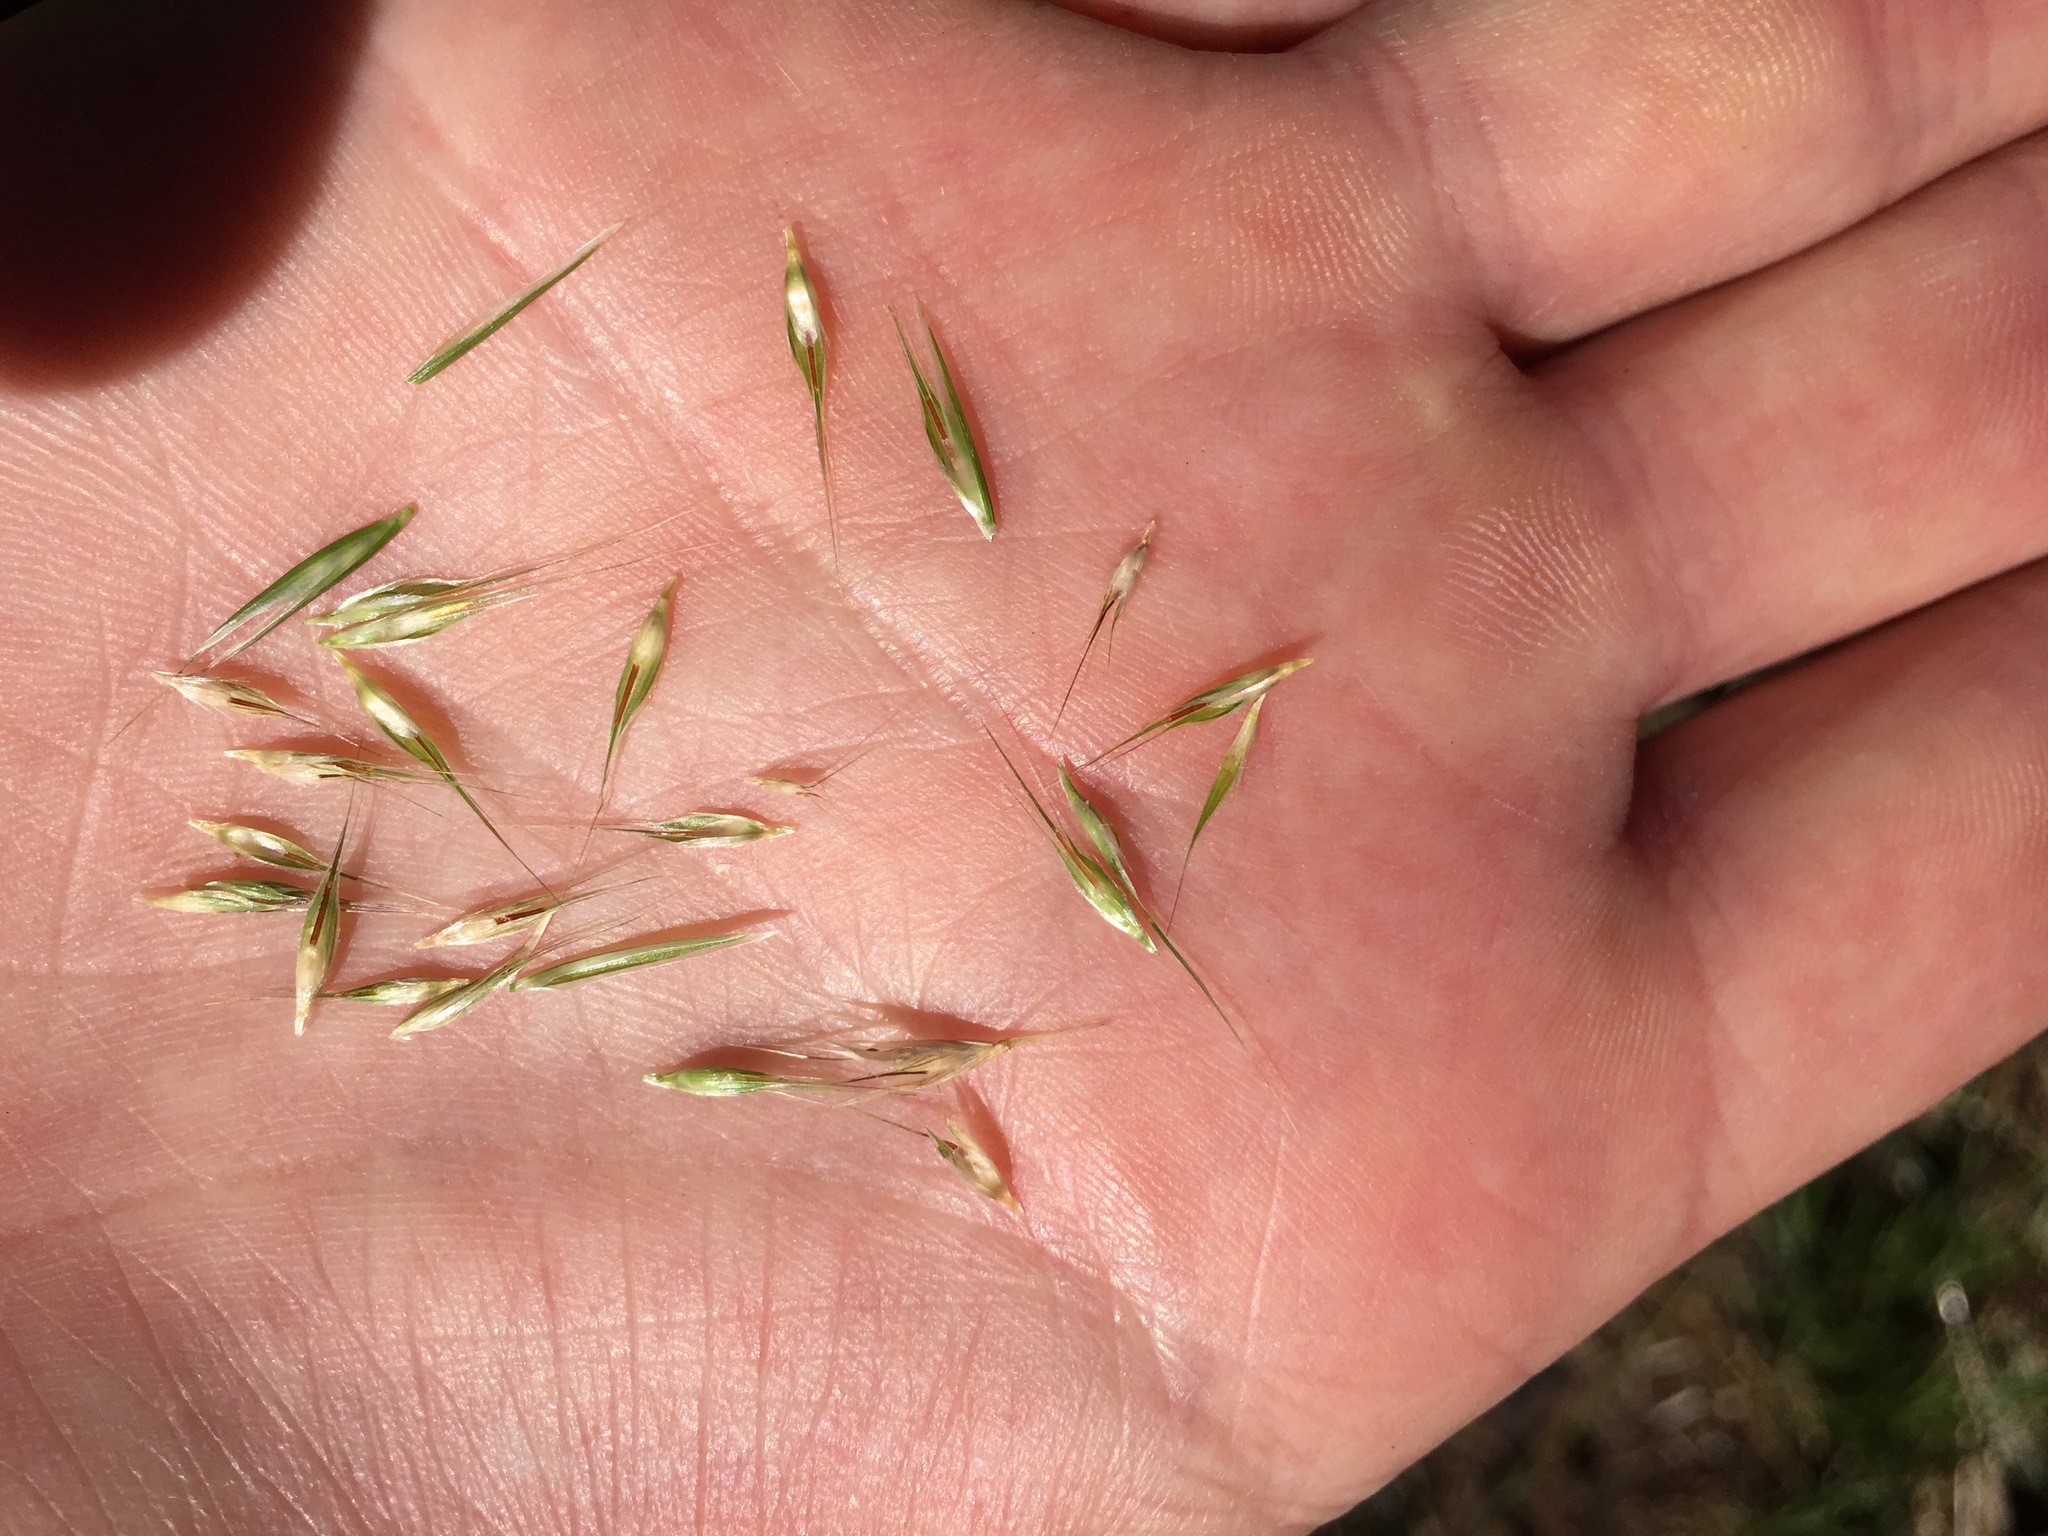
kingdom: Plantae
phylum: Tracheophyta
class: Liliopsida
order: Poales
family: Poaceae
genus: Rytidosperma
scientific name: Rytidosperma penicillatum
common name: Hairy wallaby grass
